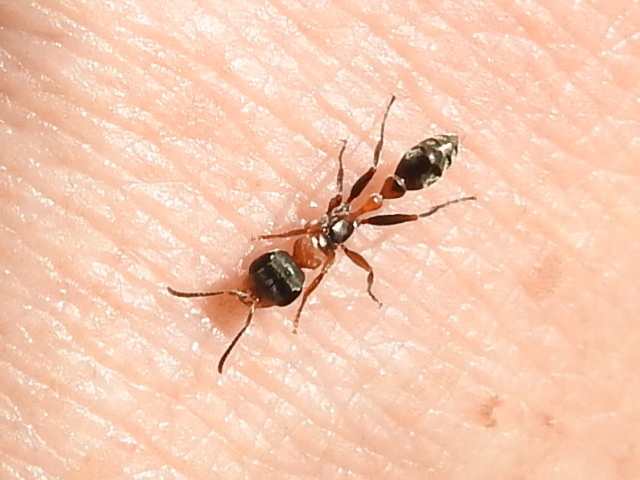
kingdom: Animalia
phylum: Arthropoda
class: Insecta
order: Hymenoptera
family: Formicidae
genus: Pseudomyrmex
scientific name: Pseudomyrmex gracilis
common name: Graceful twig ant
